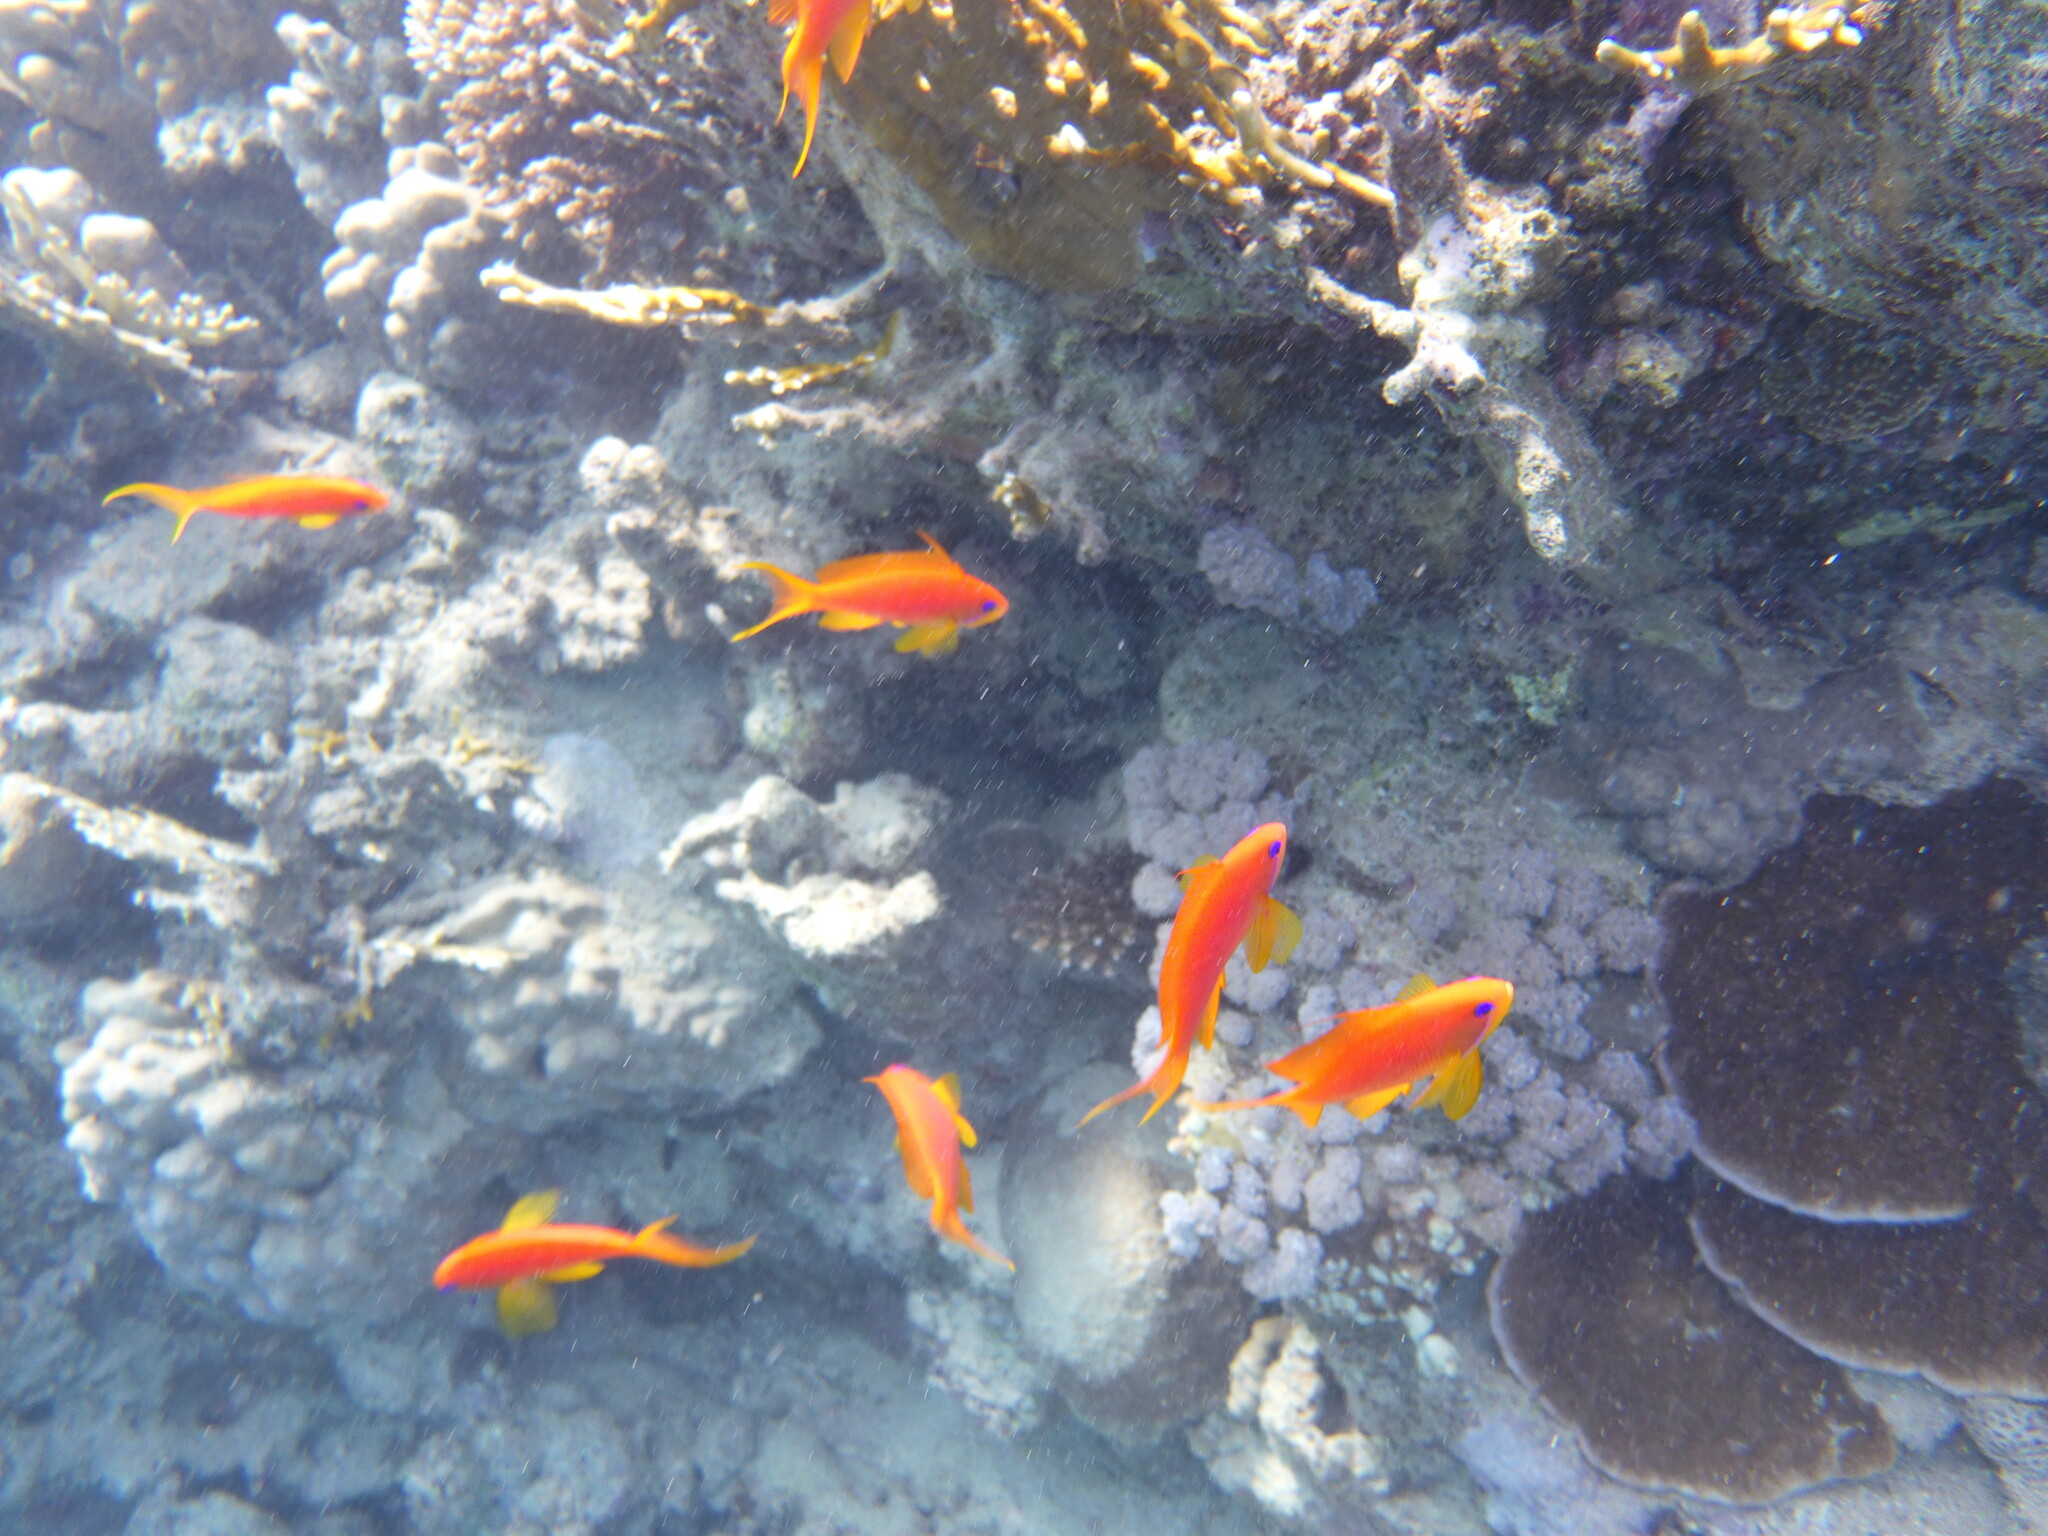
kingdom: Animalia
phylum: Chordata
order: Perciformes
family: Serranidae
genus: Pseudanthias
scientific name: Pseudanthias squamipinnis
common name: Scalefin anthias
